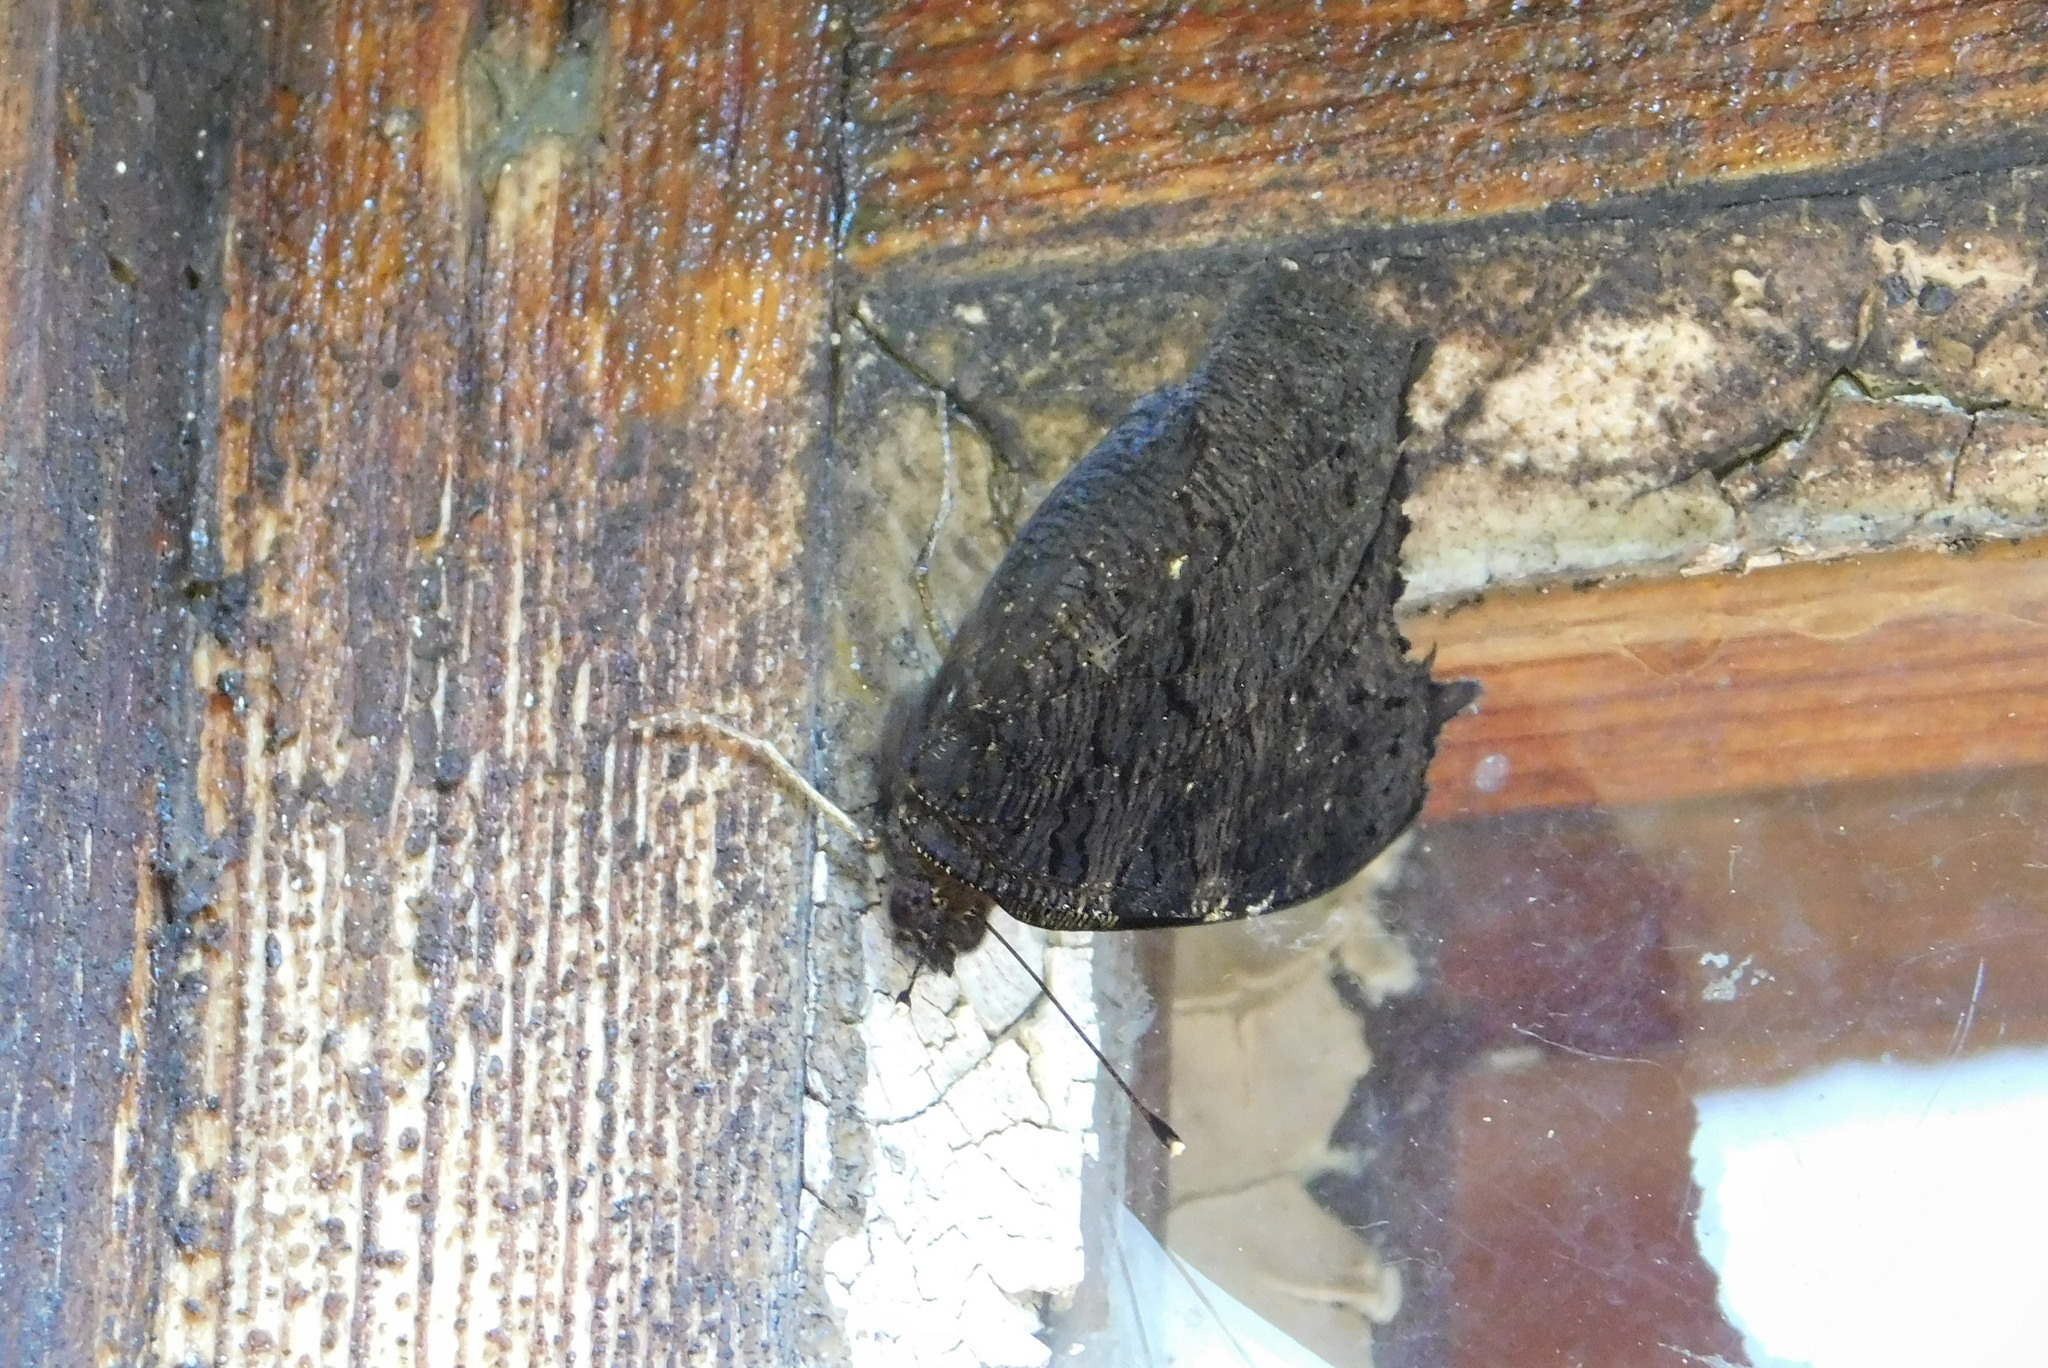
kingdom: Animalia
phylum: Arthropoda
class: Insecta
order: Lepidoptera
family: Nymphalidae
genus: Aglais
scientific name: Aglais io
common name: Peacock
